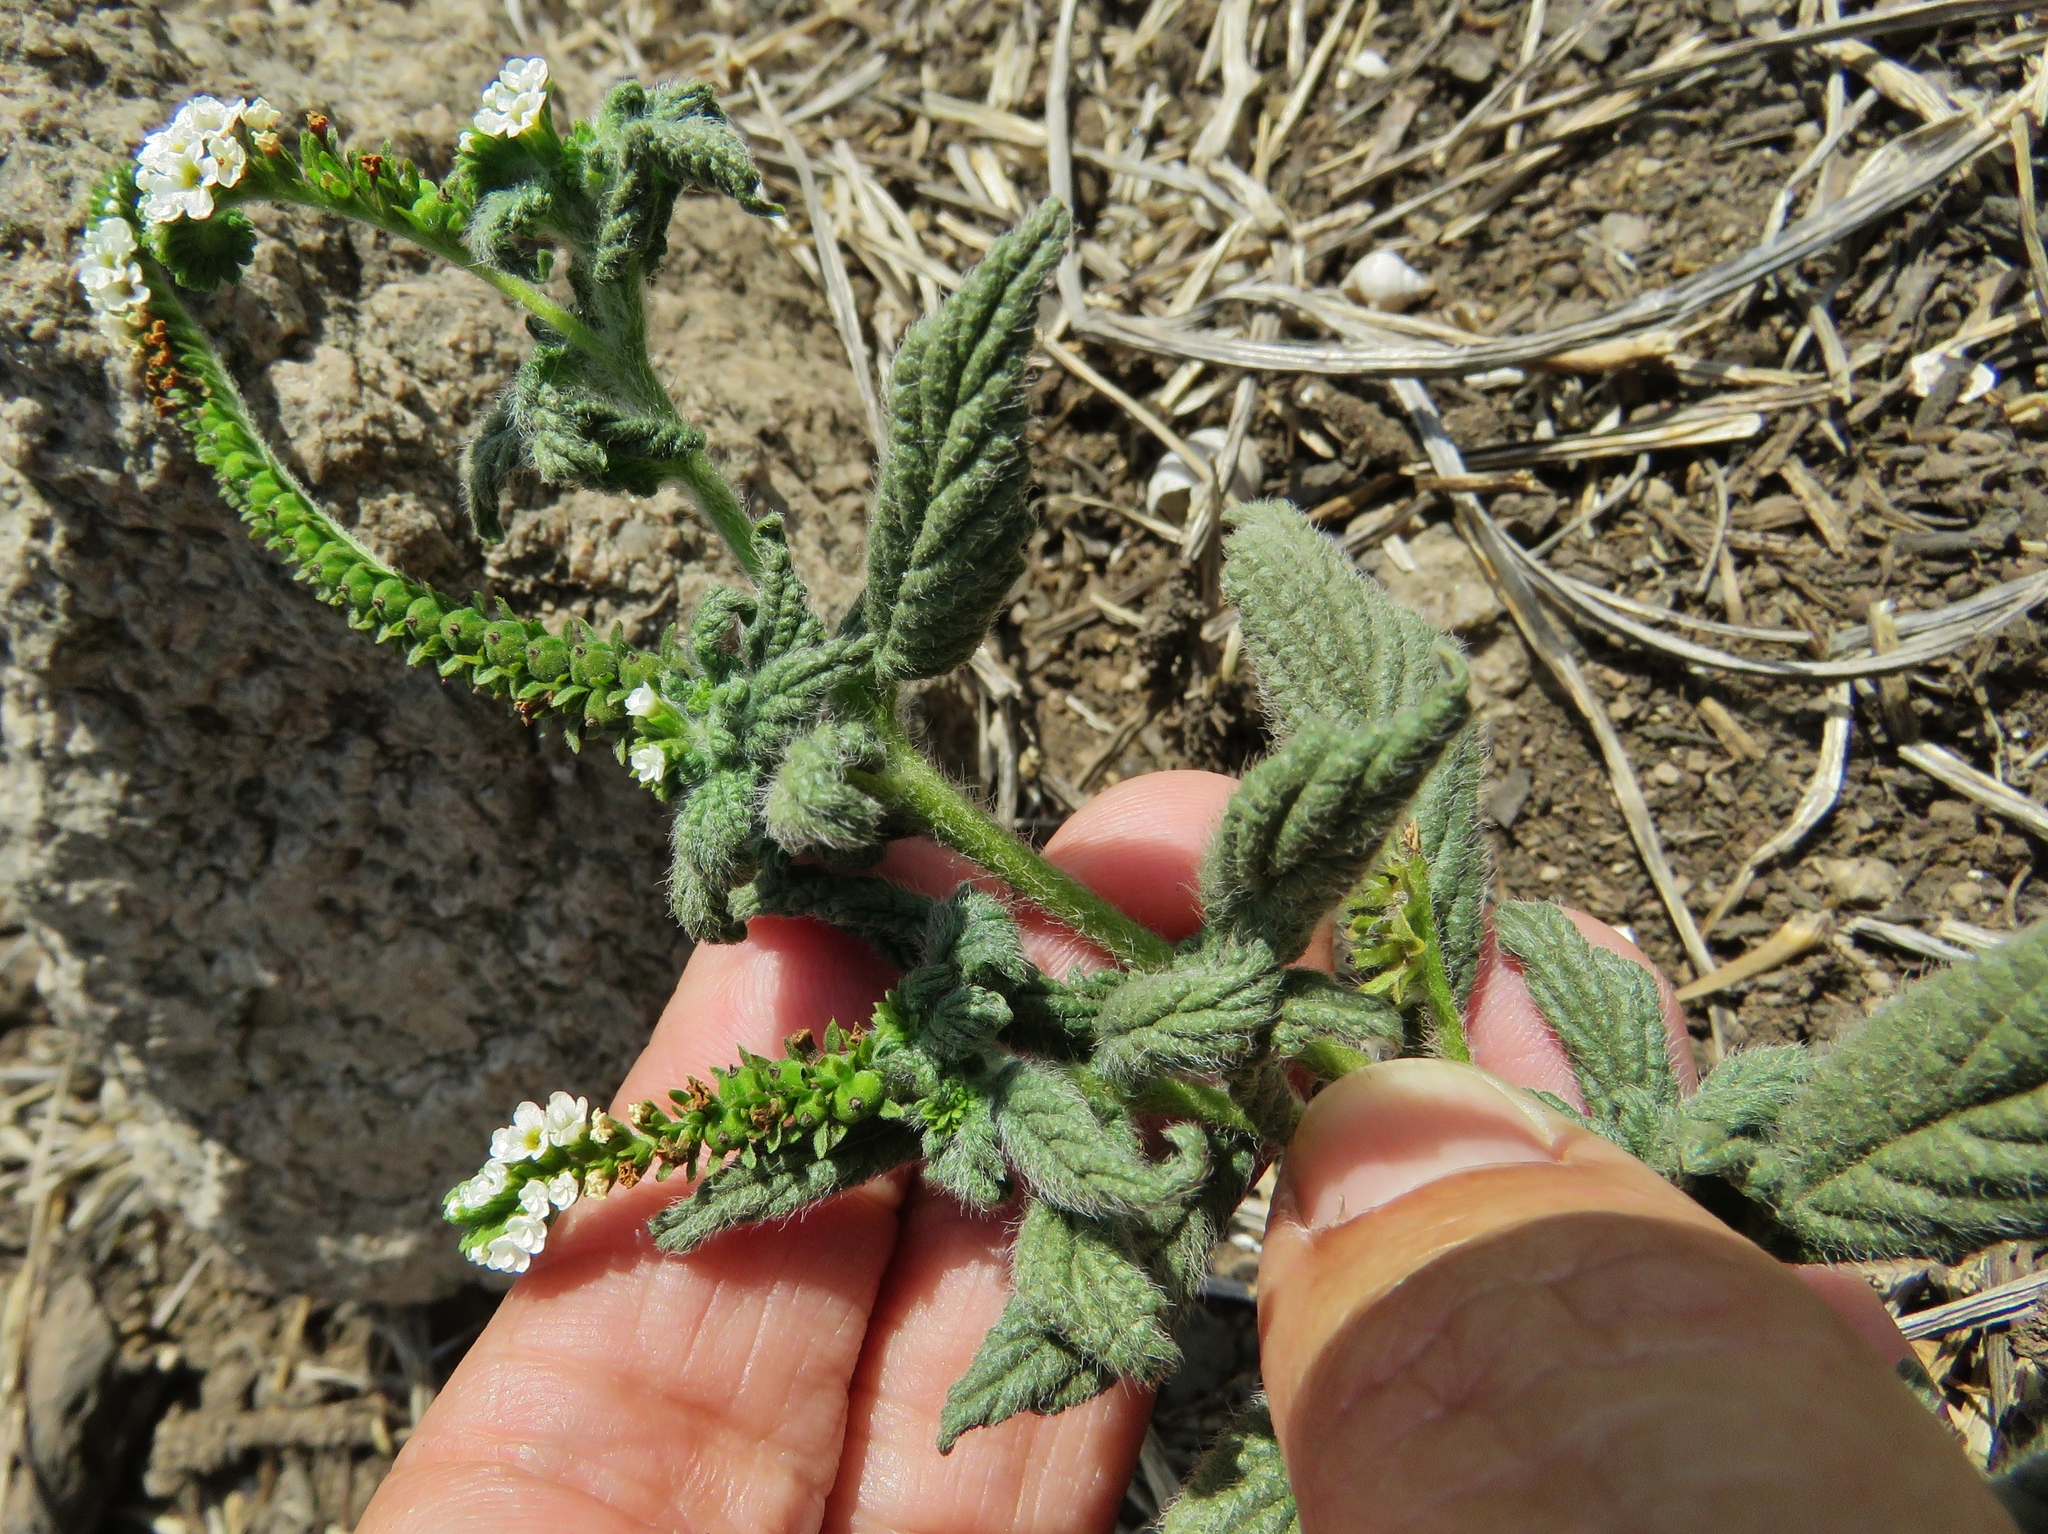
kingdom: Plantae
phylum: Tracheophyta
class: Magnoliopsida
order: Boraginales
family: Heliotropiaceae
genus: Heliotropium
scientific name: Heliotropium angiospermum
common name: Eye bright
